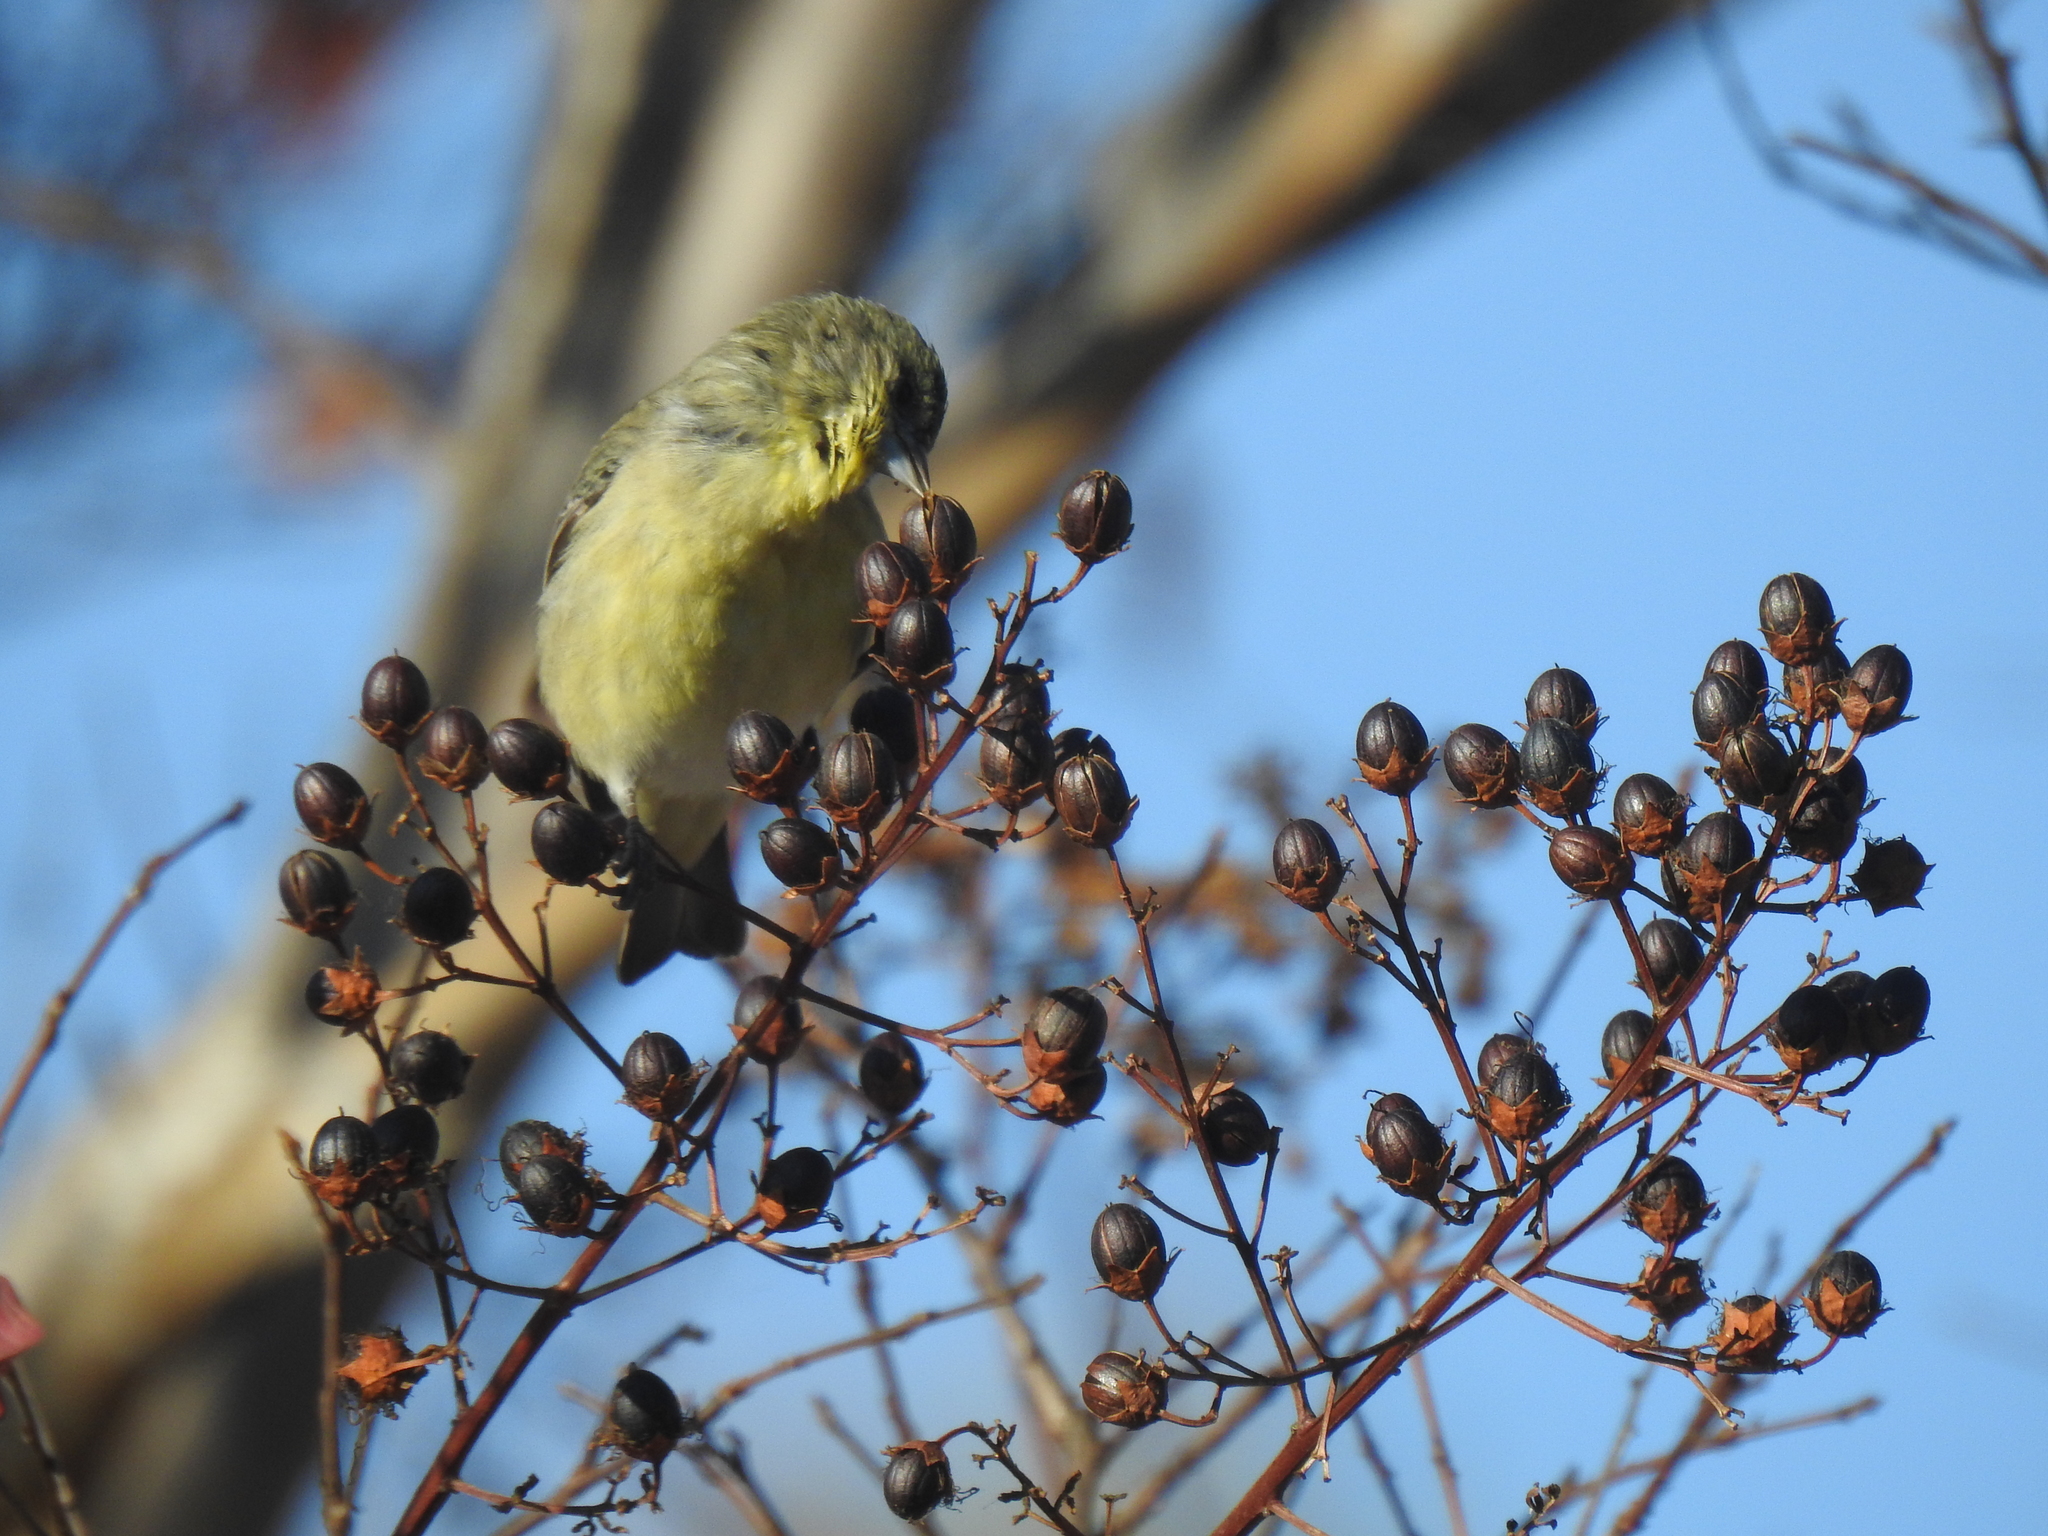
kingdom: Animalia
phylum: Chordata
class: Aves
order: Passeriformes
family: Fringillidae
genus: Spinus
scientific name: Spinus psaltria
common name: Lesser goldfinch
